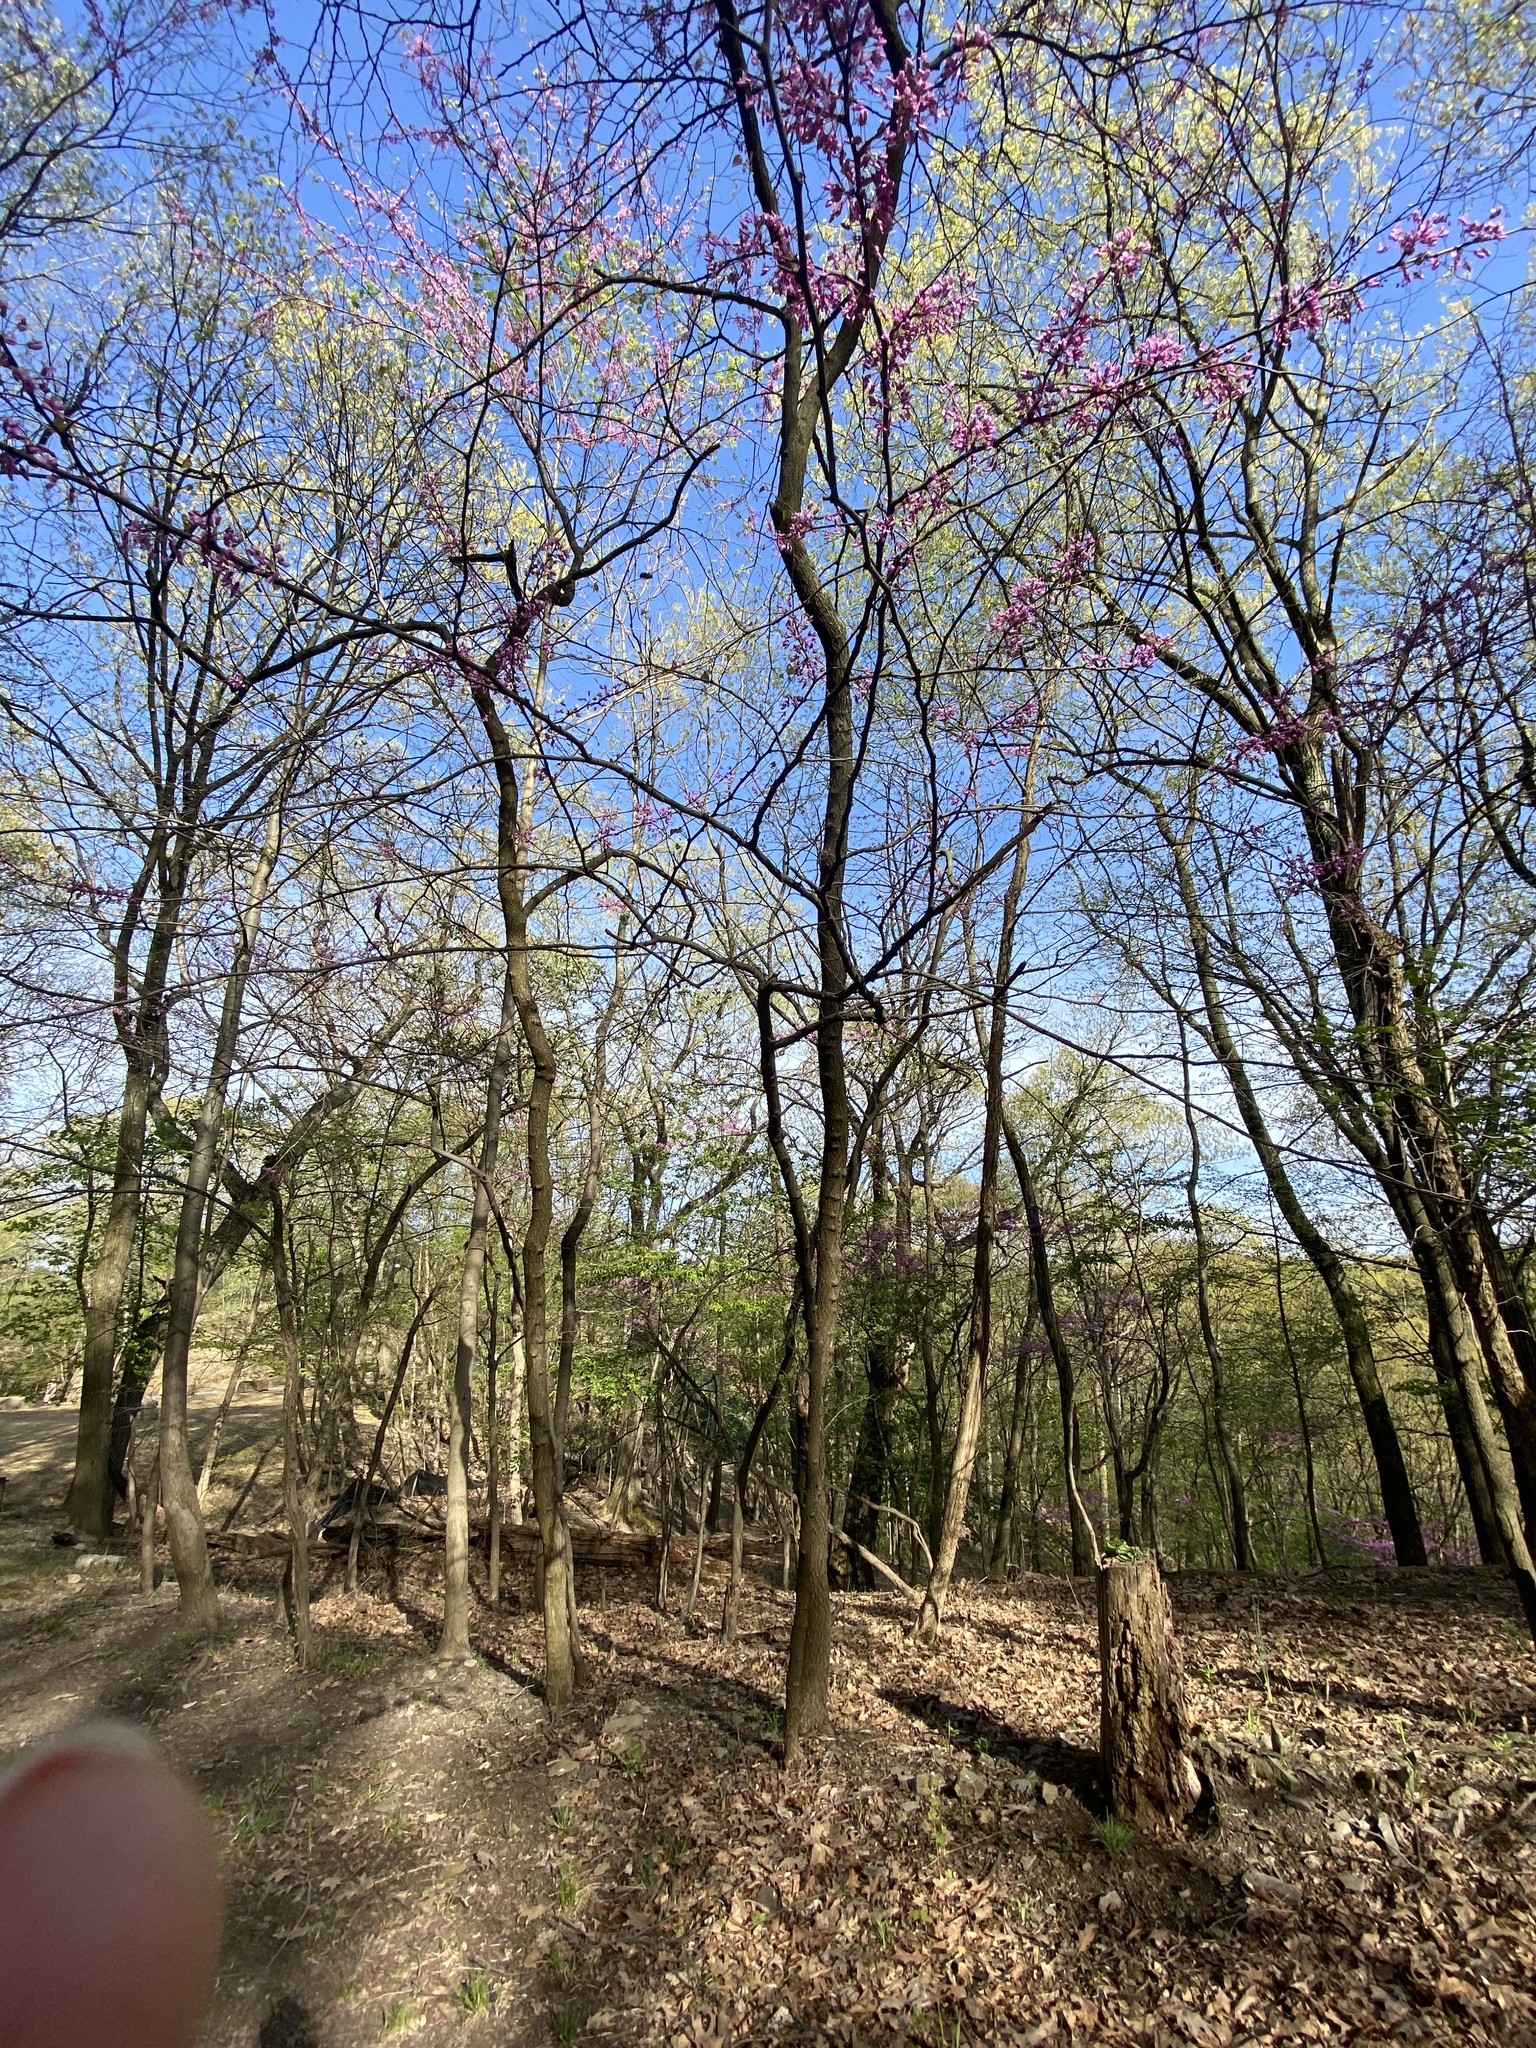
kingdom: Plantae
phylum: Tracheophyta
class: Magnoliopsida
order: Fabales
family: Fabaceae
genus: Cercis
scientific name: Cercis canadensis
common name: Eastern redbud
